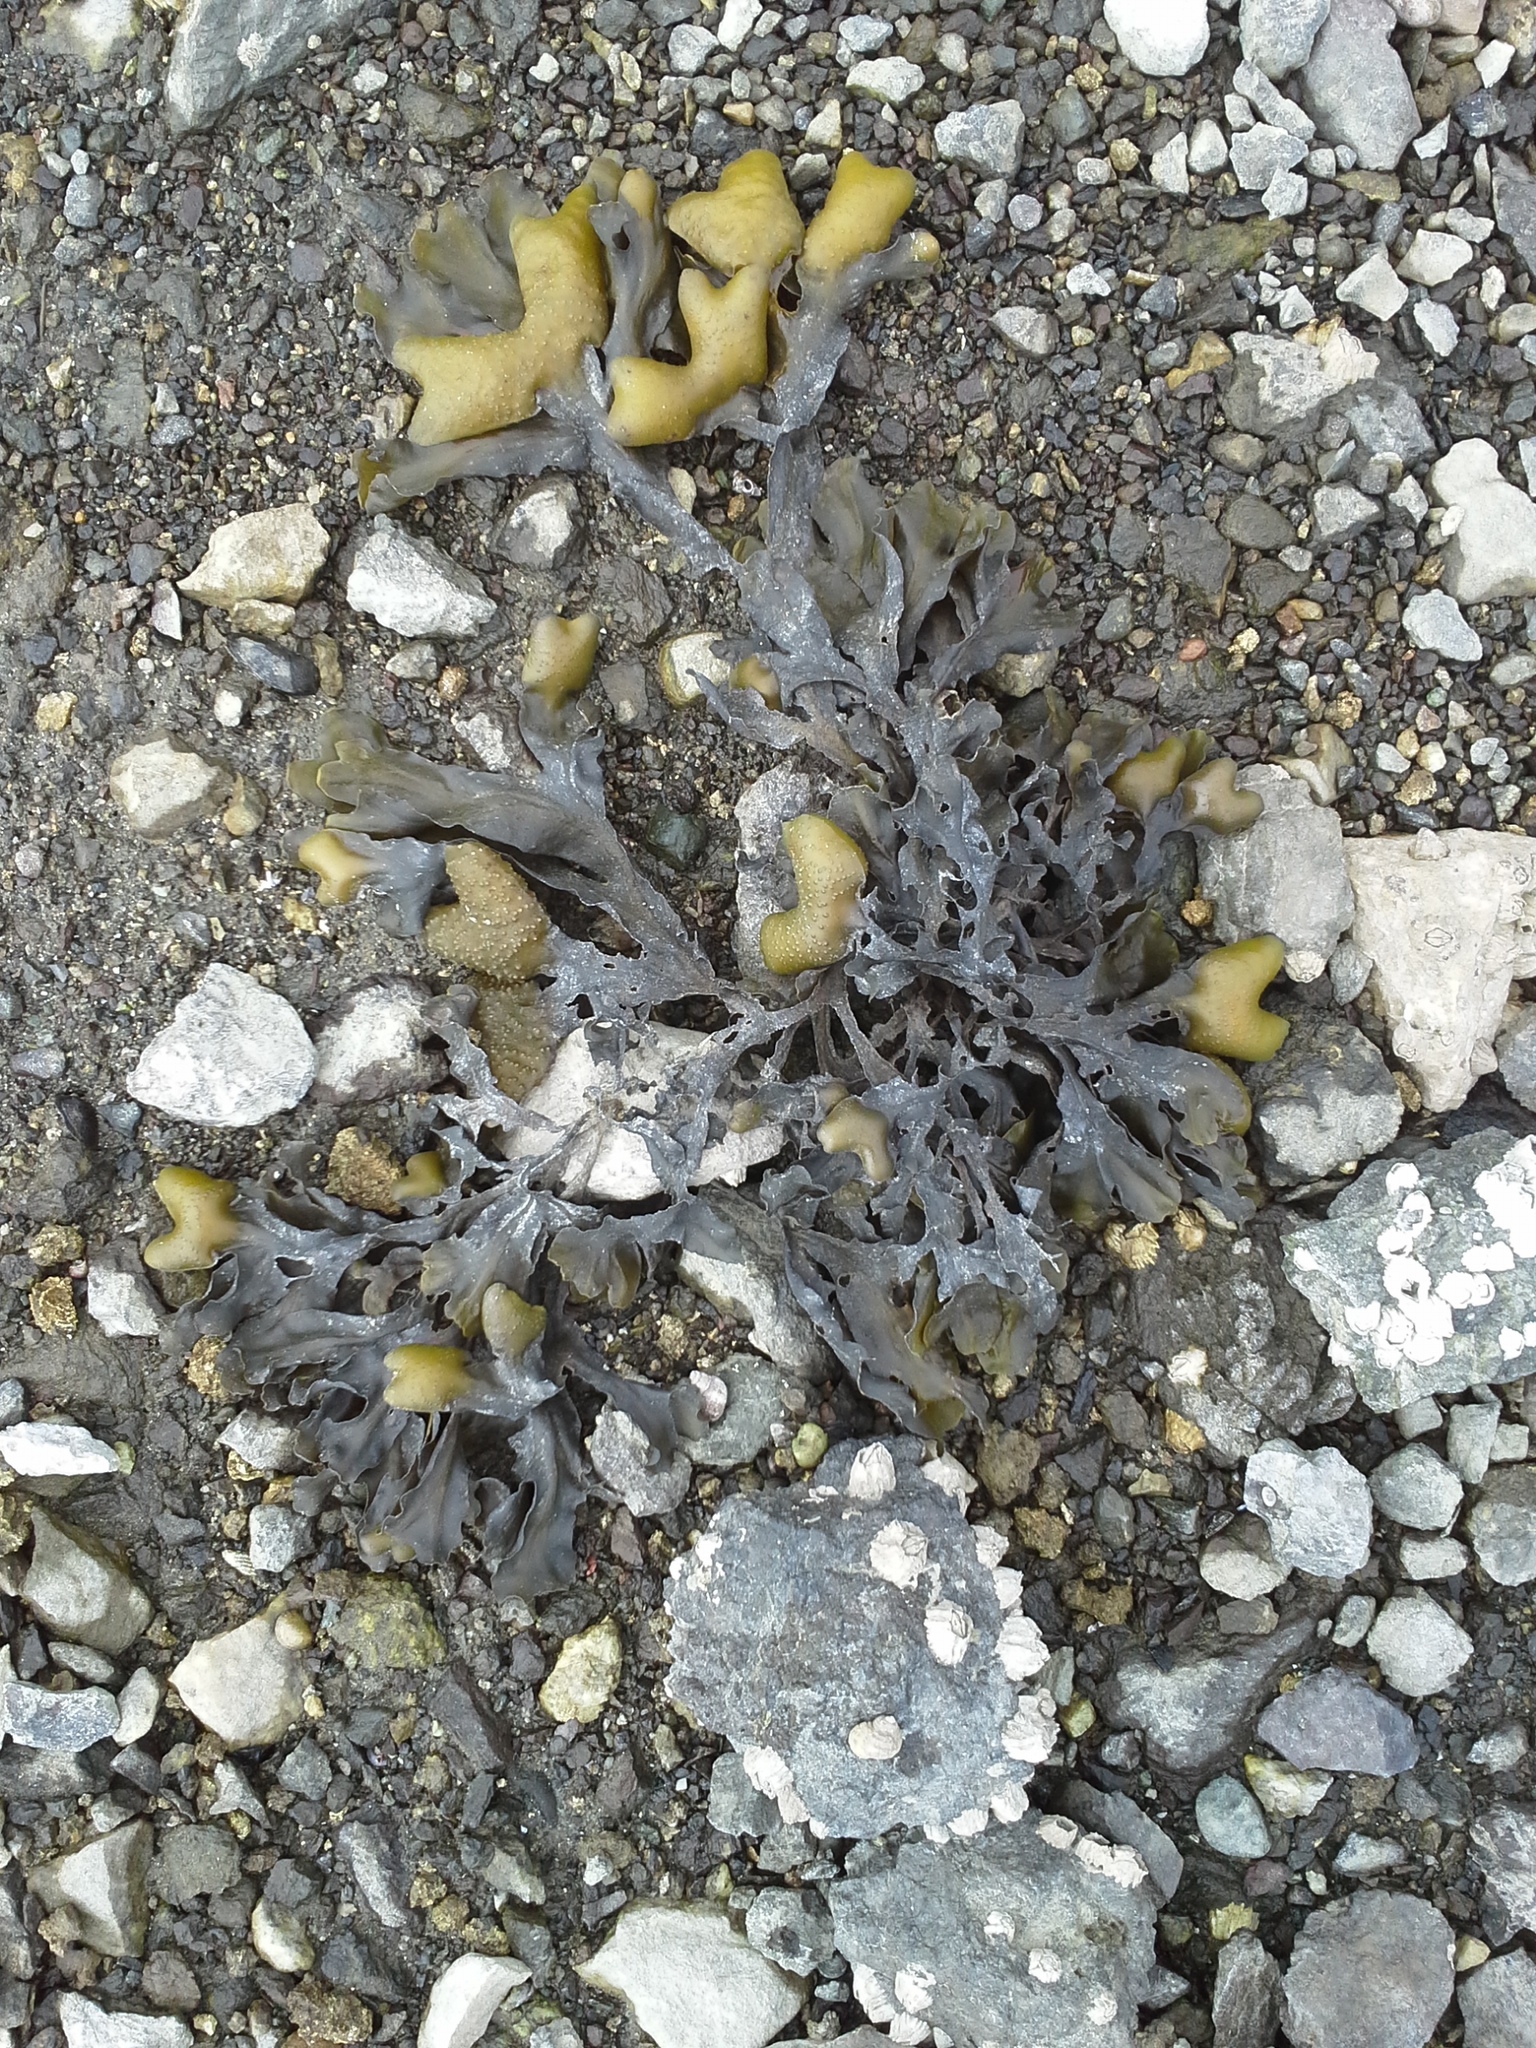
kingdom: Chromista
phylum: Ochrophyta
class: Phaeophyceae
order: Fucales
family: Fucaceae
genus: Fucus
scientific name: Fucus distichus
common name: Rockweed
